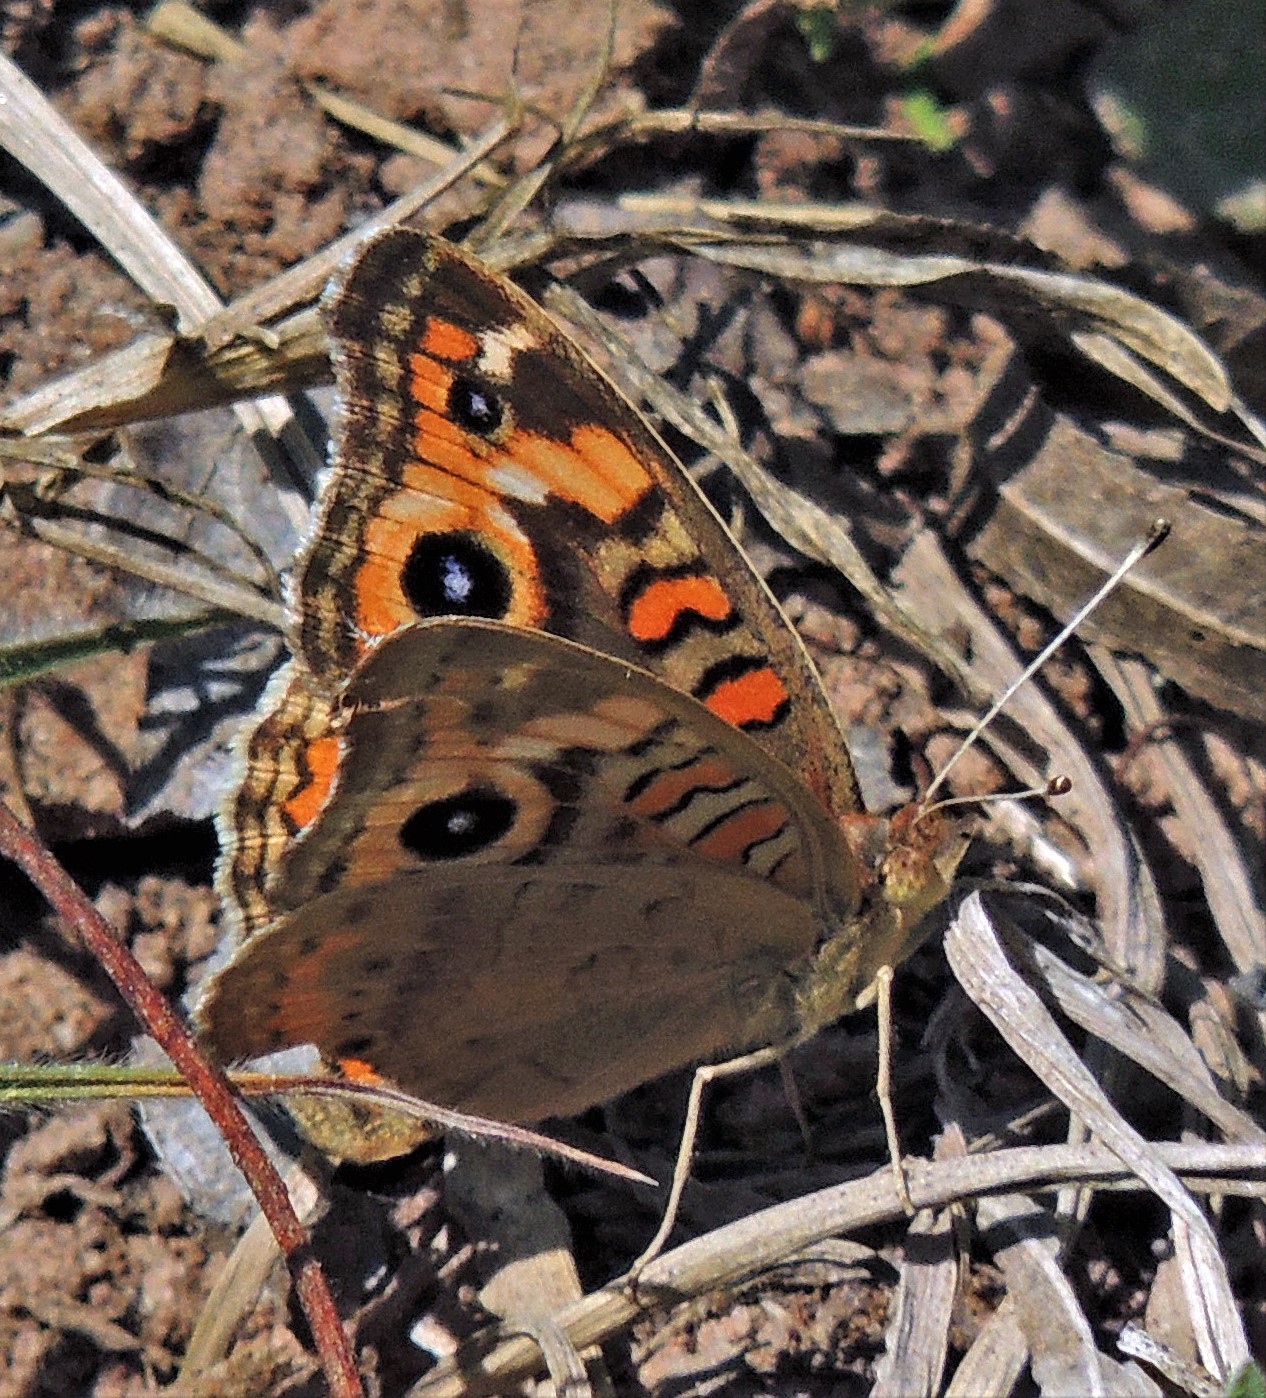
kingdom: Animalia
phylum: Arthropoda
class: Insecta
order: Lepidoptera
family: Nymphalidae
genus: Junonia
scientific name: Junonia lavinia
